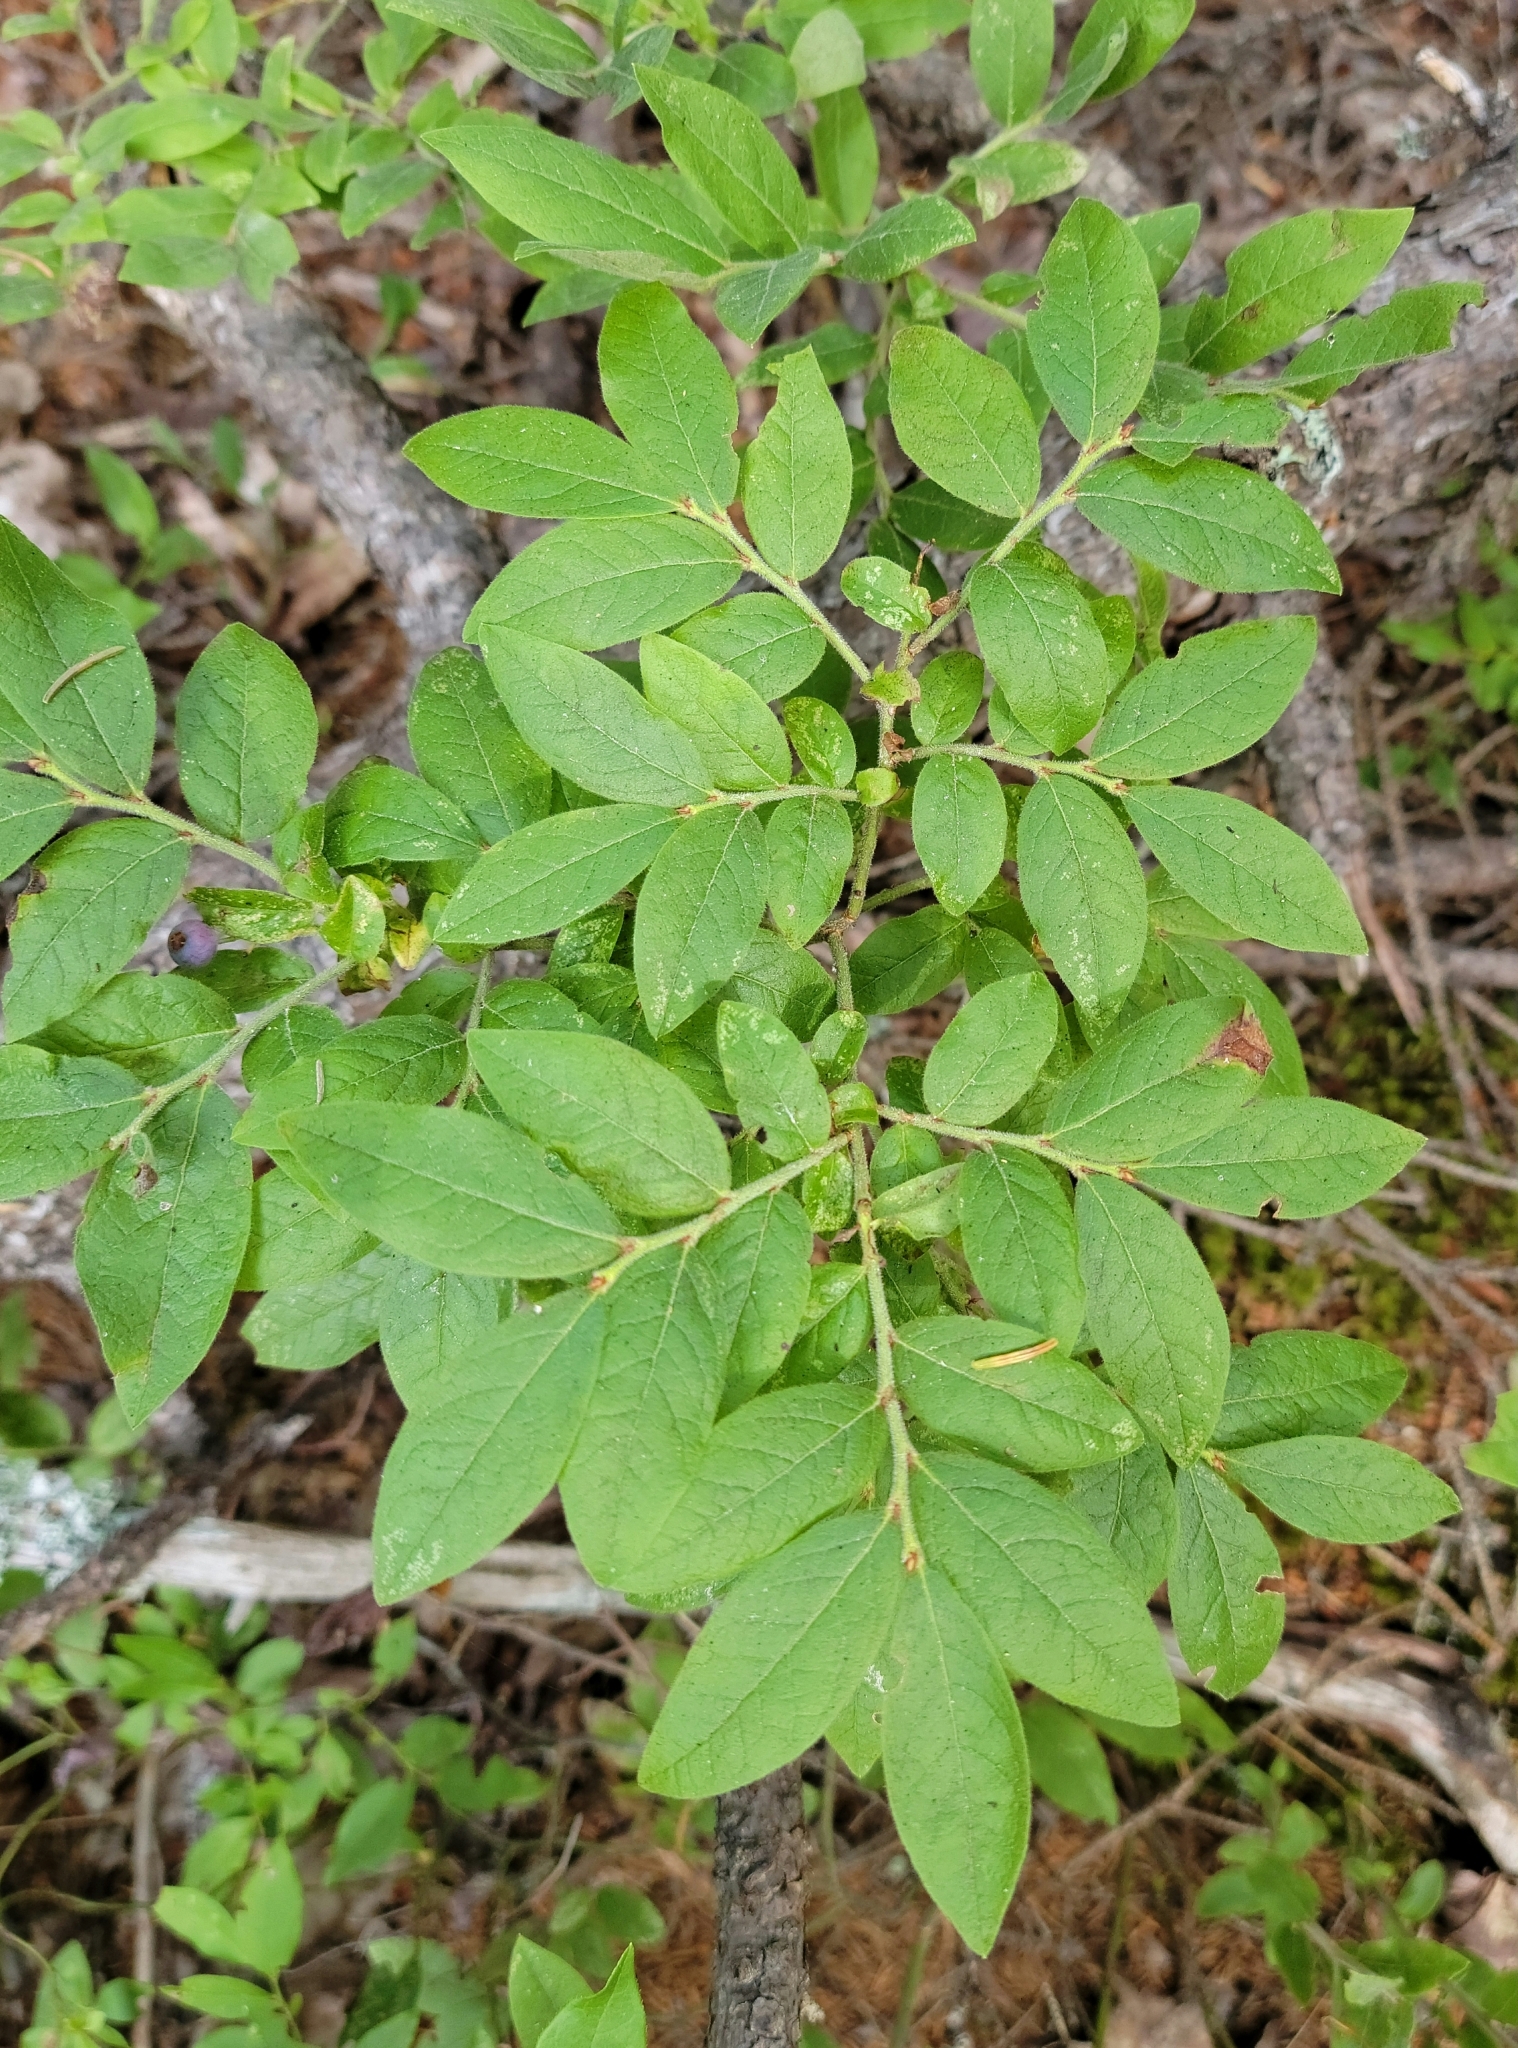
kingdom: Plantae
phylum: Tracheophyta
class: Magnoliopsida
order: Ericales
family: Ericaceae
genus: Vaccinium
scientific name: Vaccinium myrtilloides
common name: Canada blueberry
